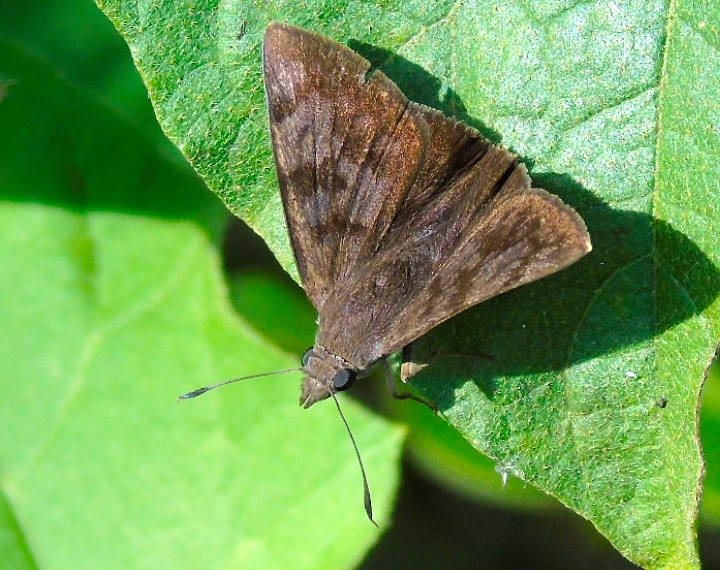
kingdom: Animalia
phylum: Arthropoda
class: Insecta
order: Lepidoptera
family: Hesperiidae
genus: Pellicia
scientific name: Pellicia costimacula
